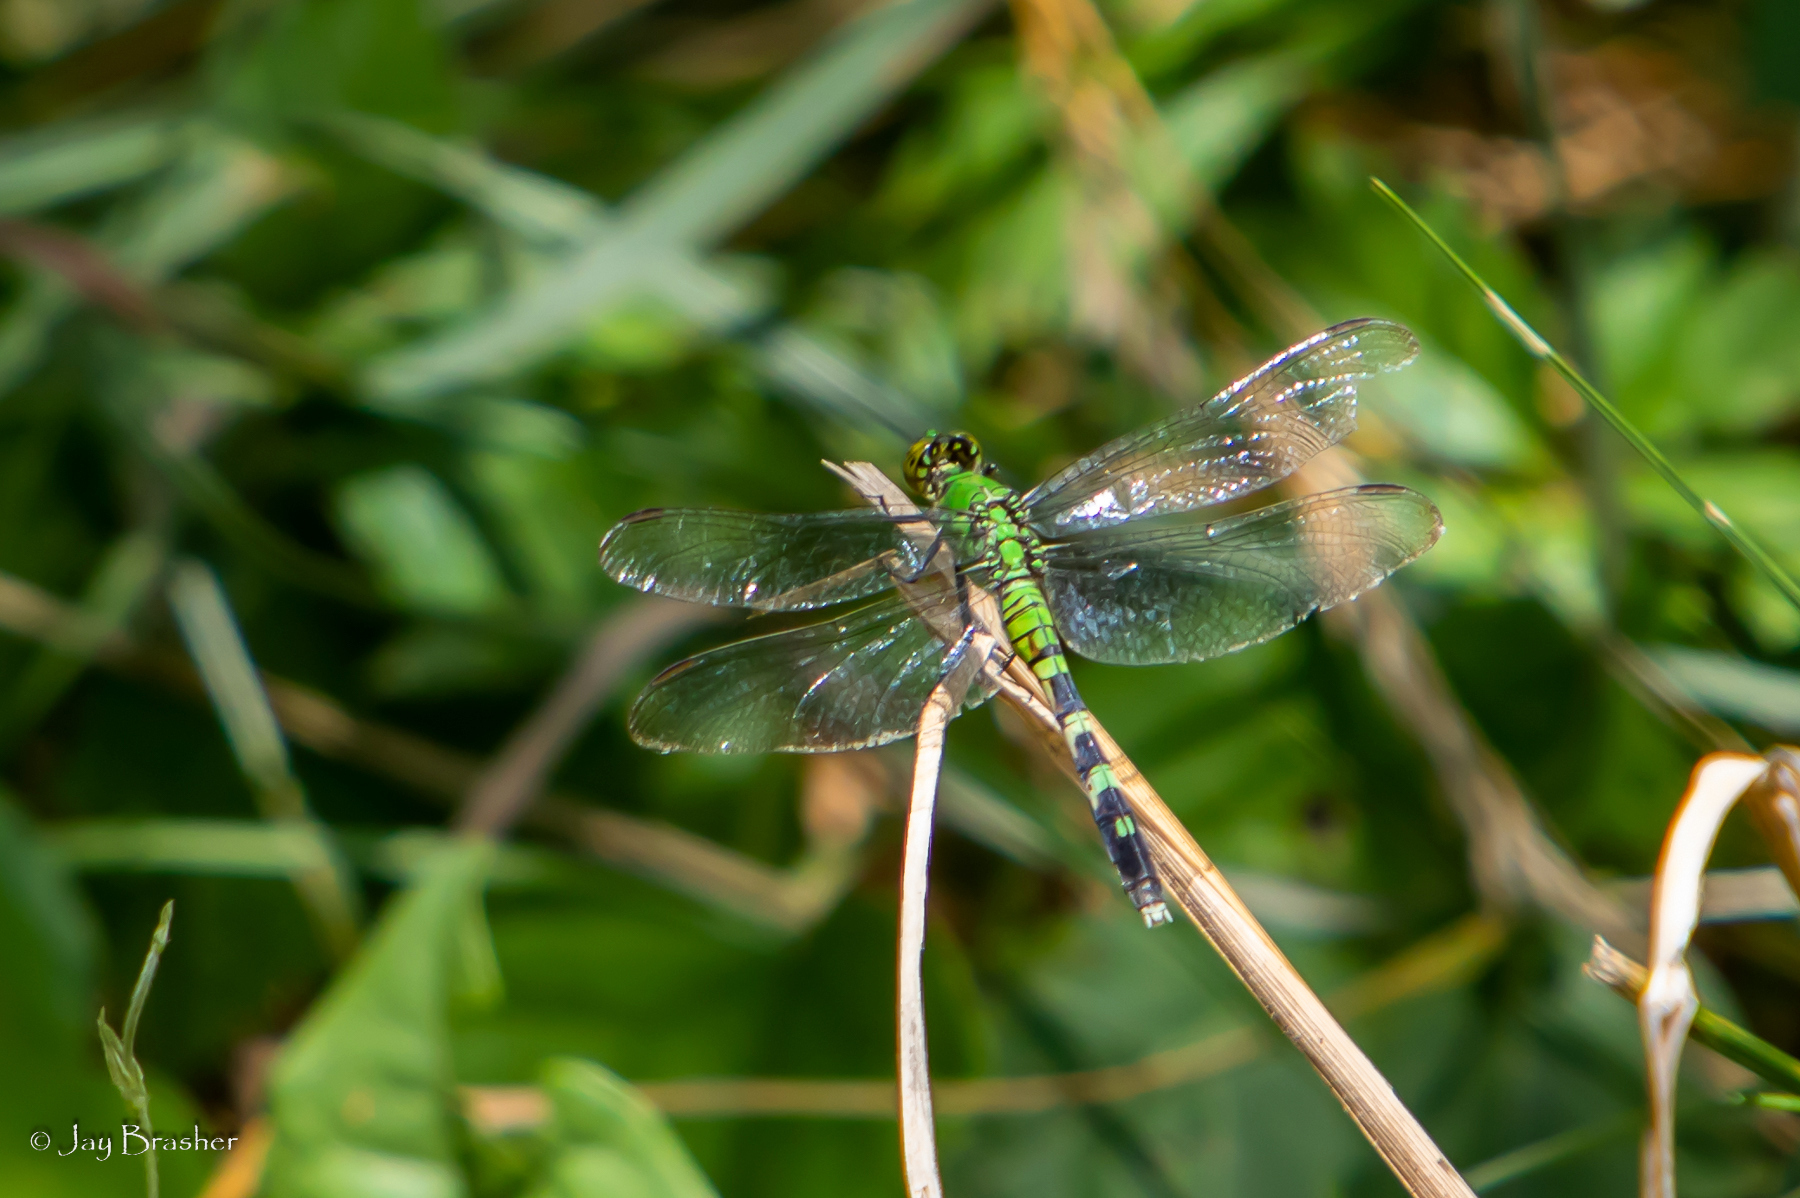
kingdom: Animalia
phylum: Arthropoda
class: Insecta
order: Odonata
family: Libellulidae
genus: Erythemis
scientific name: Erythemis simplicicollis
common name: Eastern pondhawk
